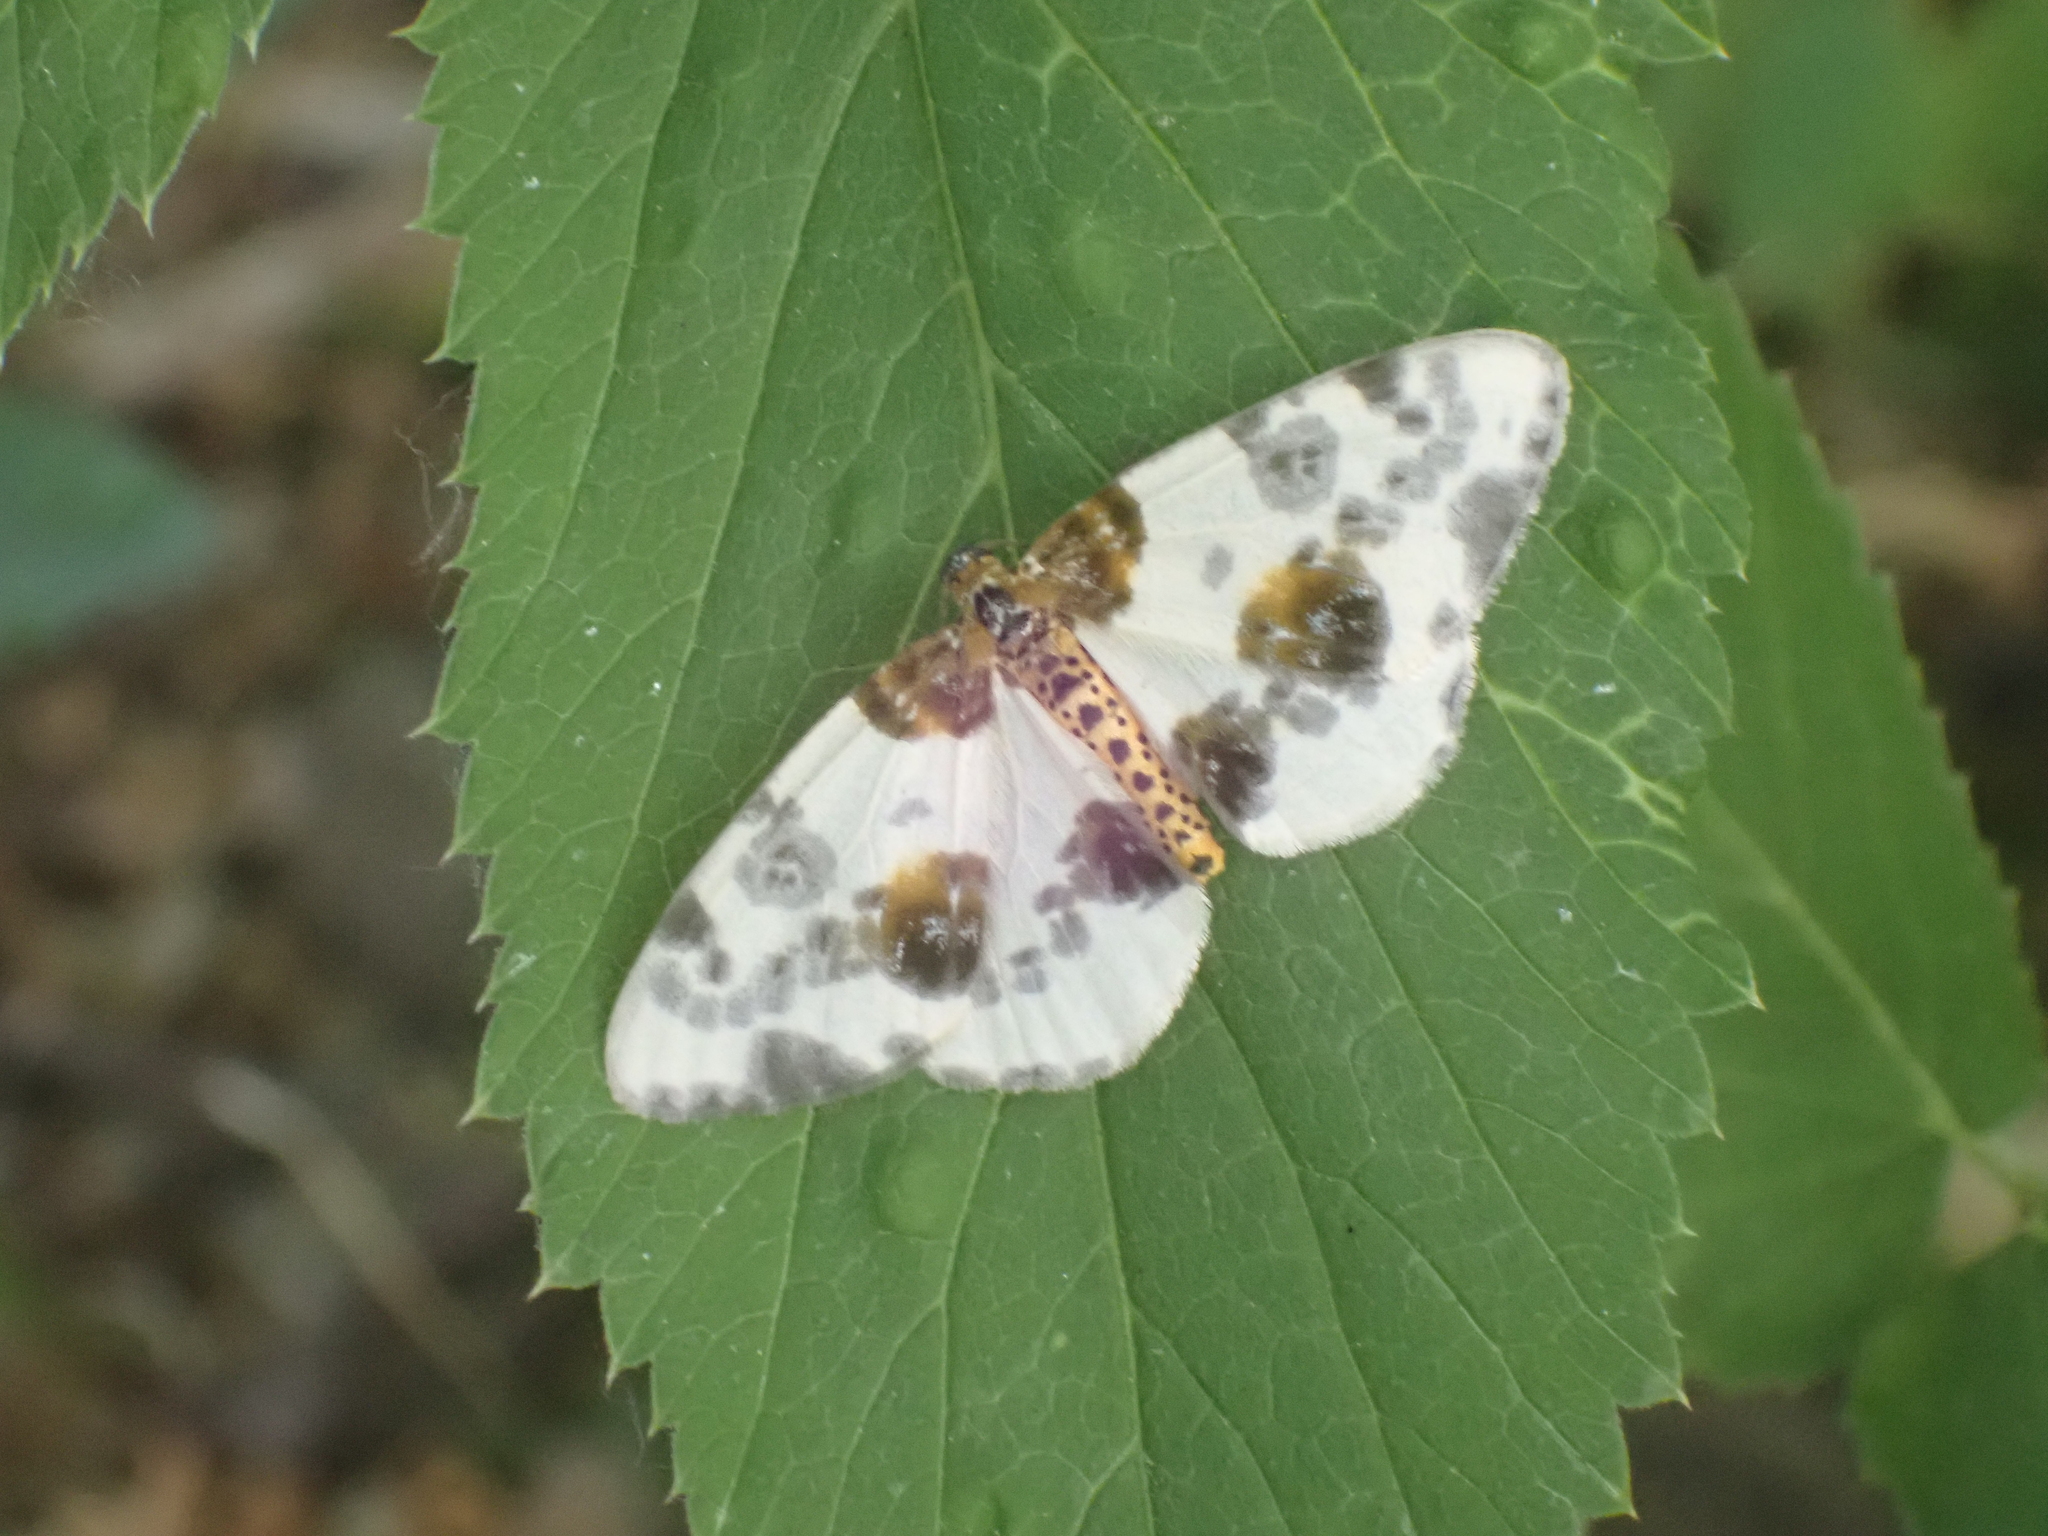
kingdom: Animalia
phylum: Arthropoda
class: Insecta
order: Lepidoptera
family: Geometridae
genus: Abraxas
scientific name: Abraxas sylvata
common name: Clouded magpie
